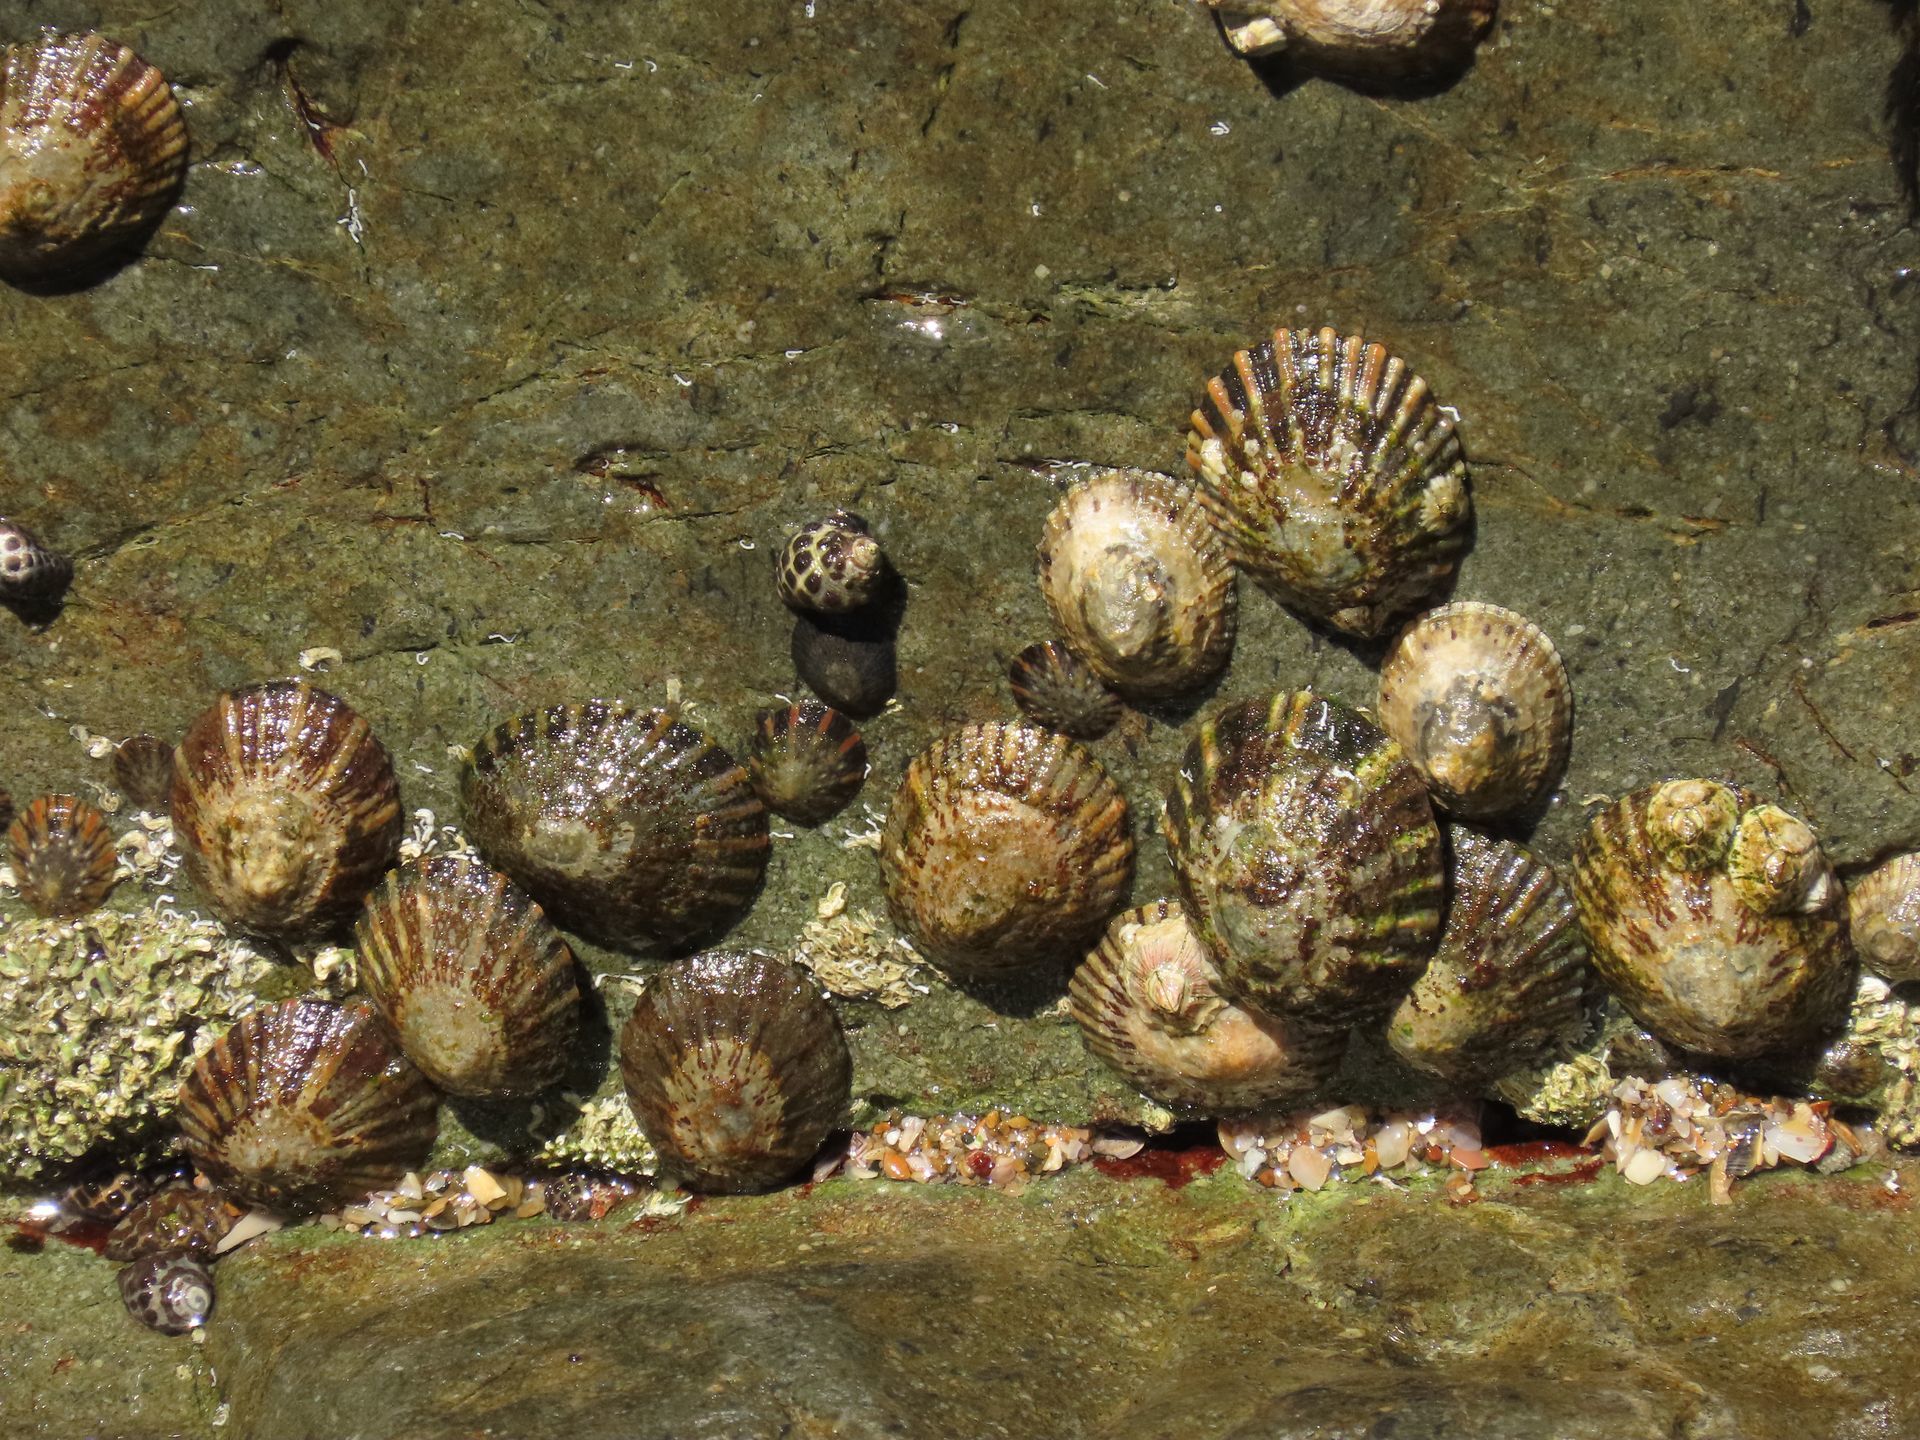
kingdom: Animalia
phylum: Mollusca
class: Gastropoda
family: Nacellidae
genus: Cellana
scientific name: Cellana tramoserica
